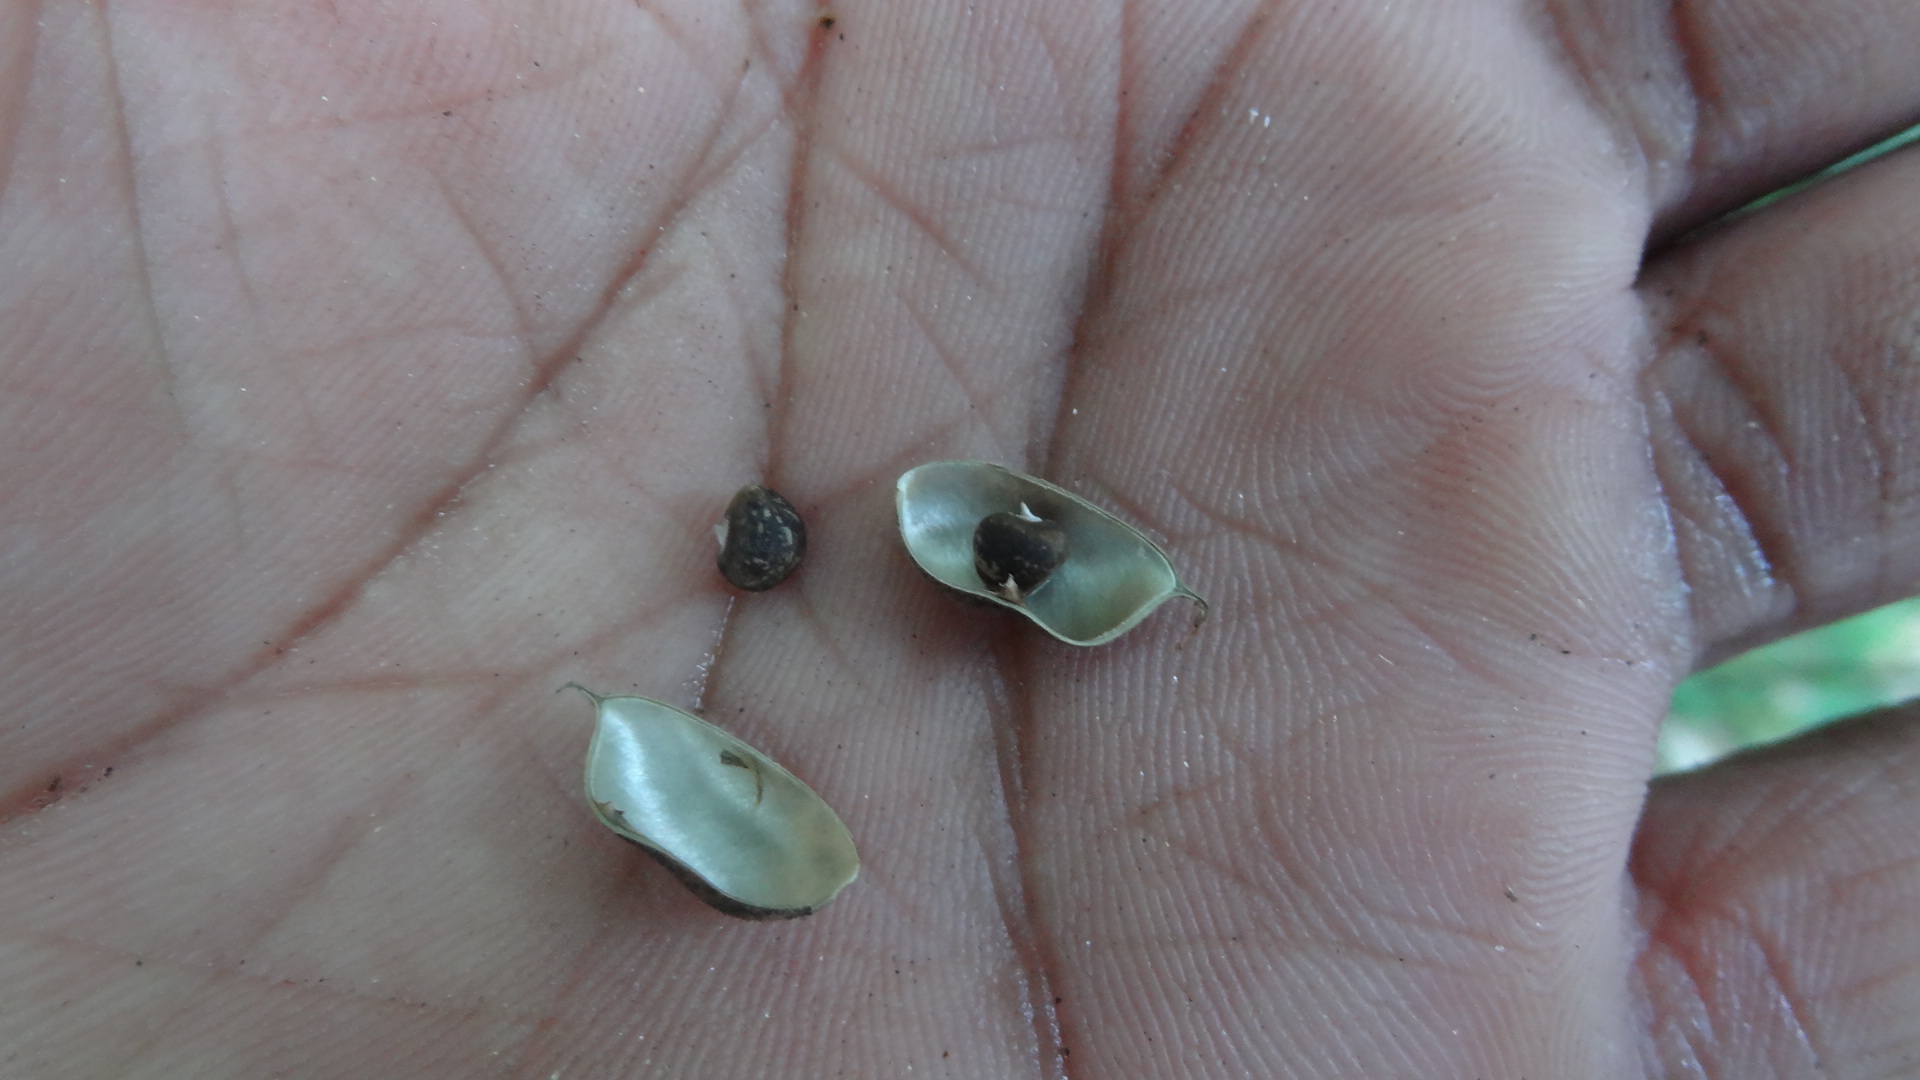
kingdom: Plantae
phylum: Tracheophyta
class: Magnoliopsida
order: Fabales
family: Fabaceae
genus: Flemingia
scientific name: Flemingia macrophylla
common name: Flemingia
